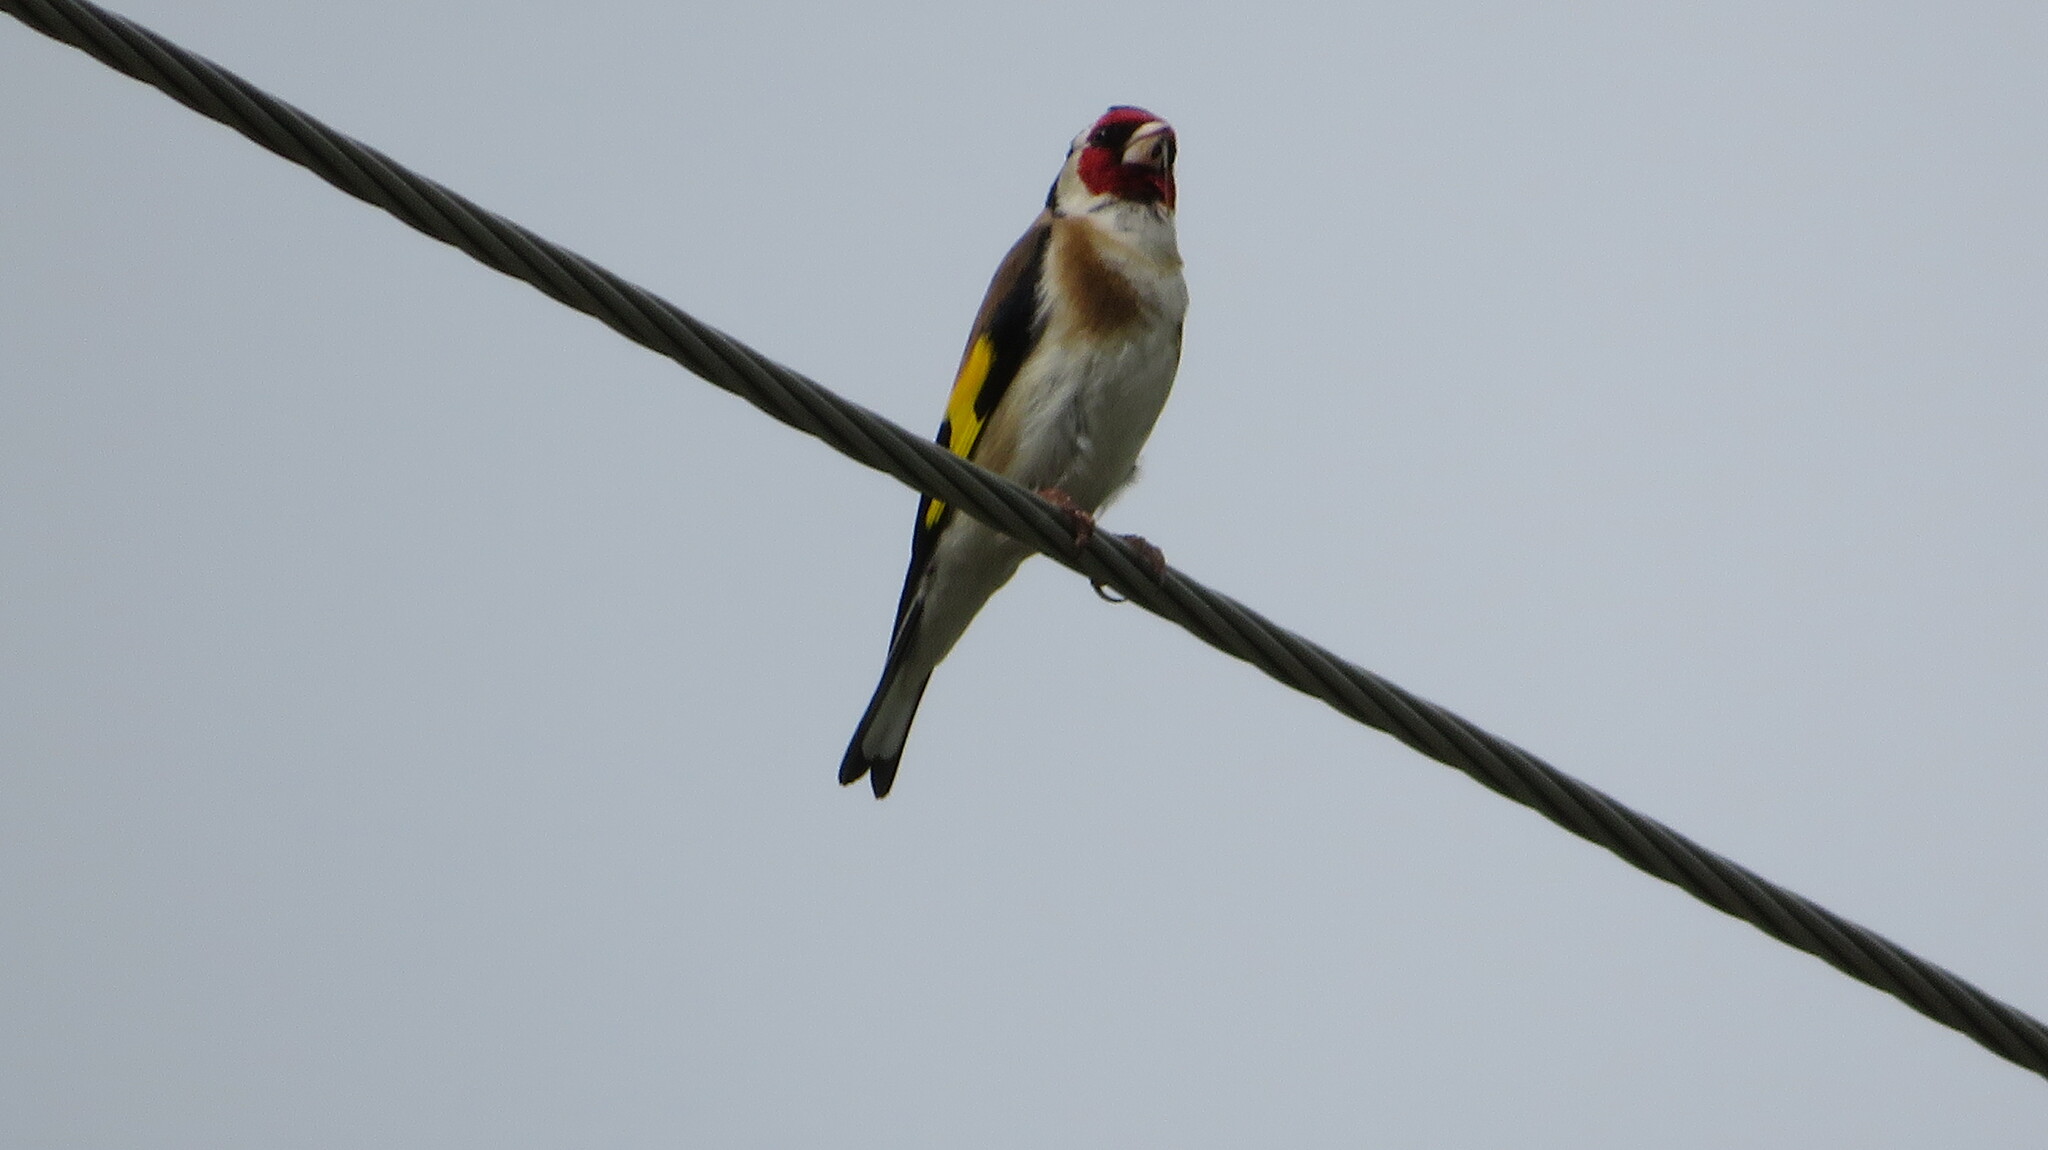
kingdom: Animalia
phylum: Chordata
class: Aves
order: Passeriformes
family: Fringillidae
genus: Carduelis
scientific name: Carduelis carduelis
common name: European goldfinch
